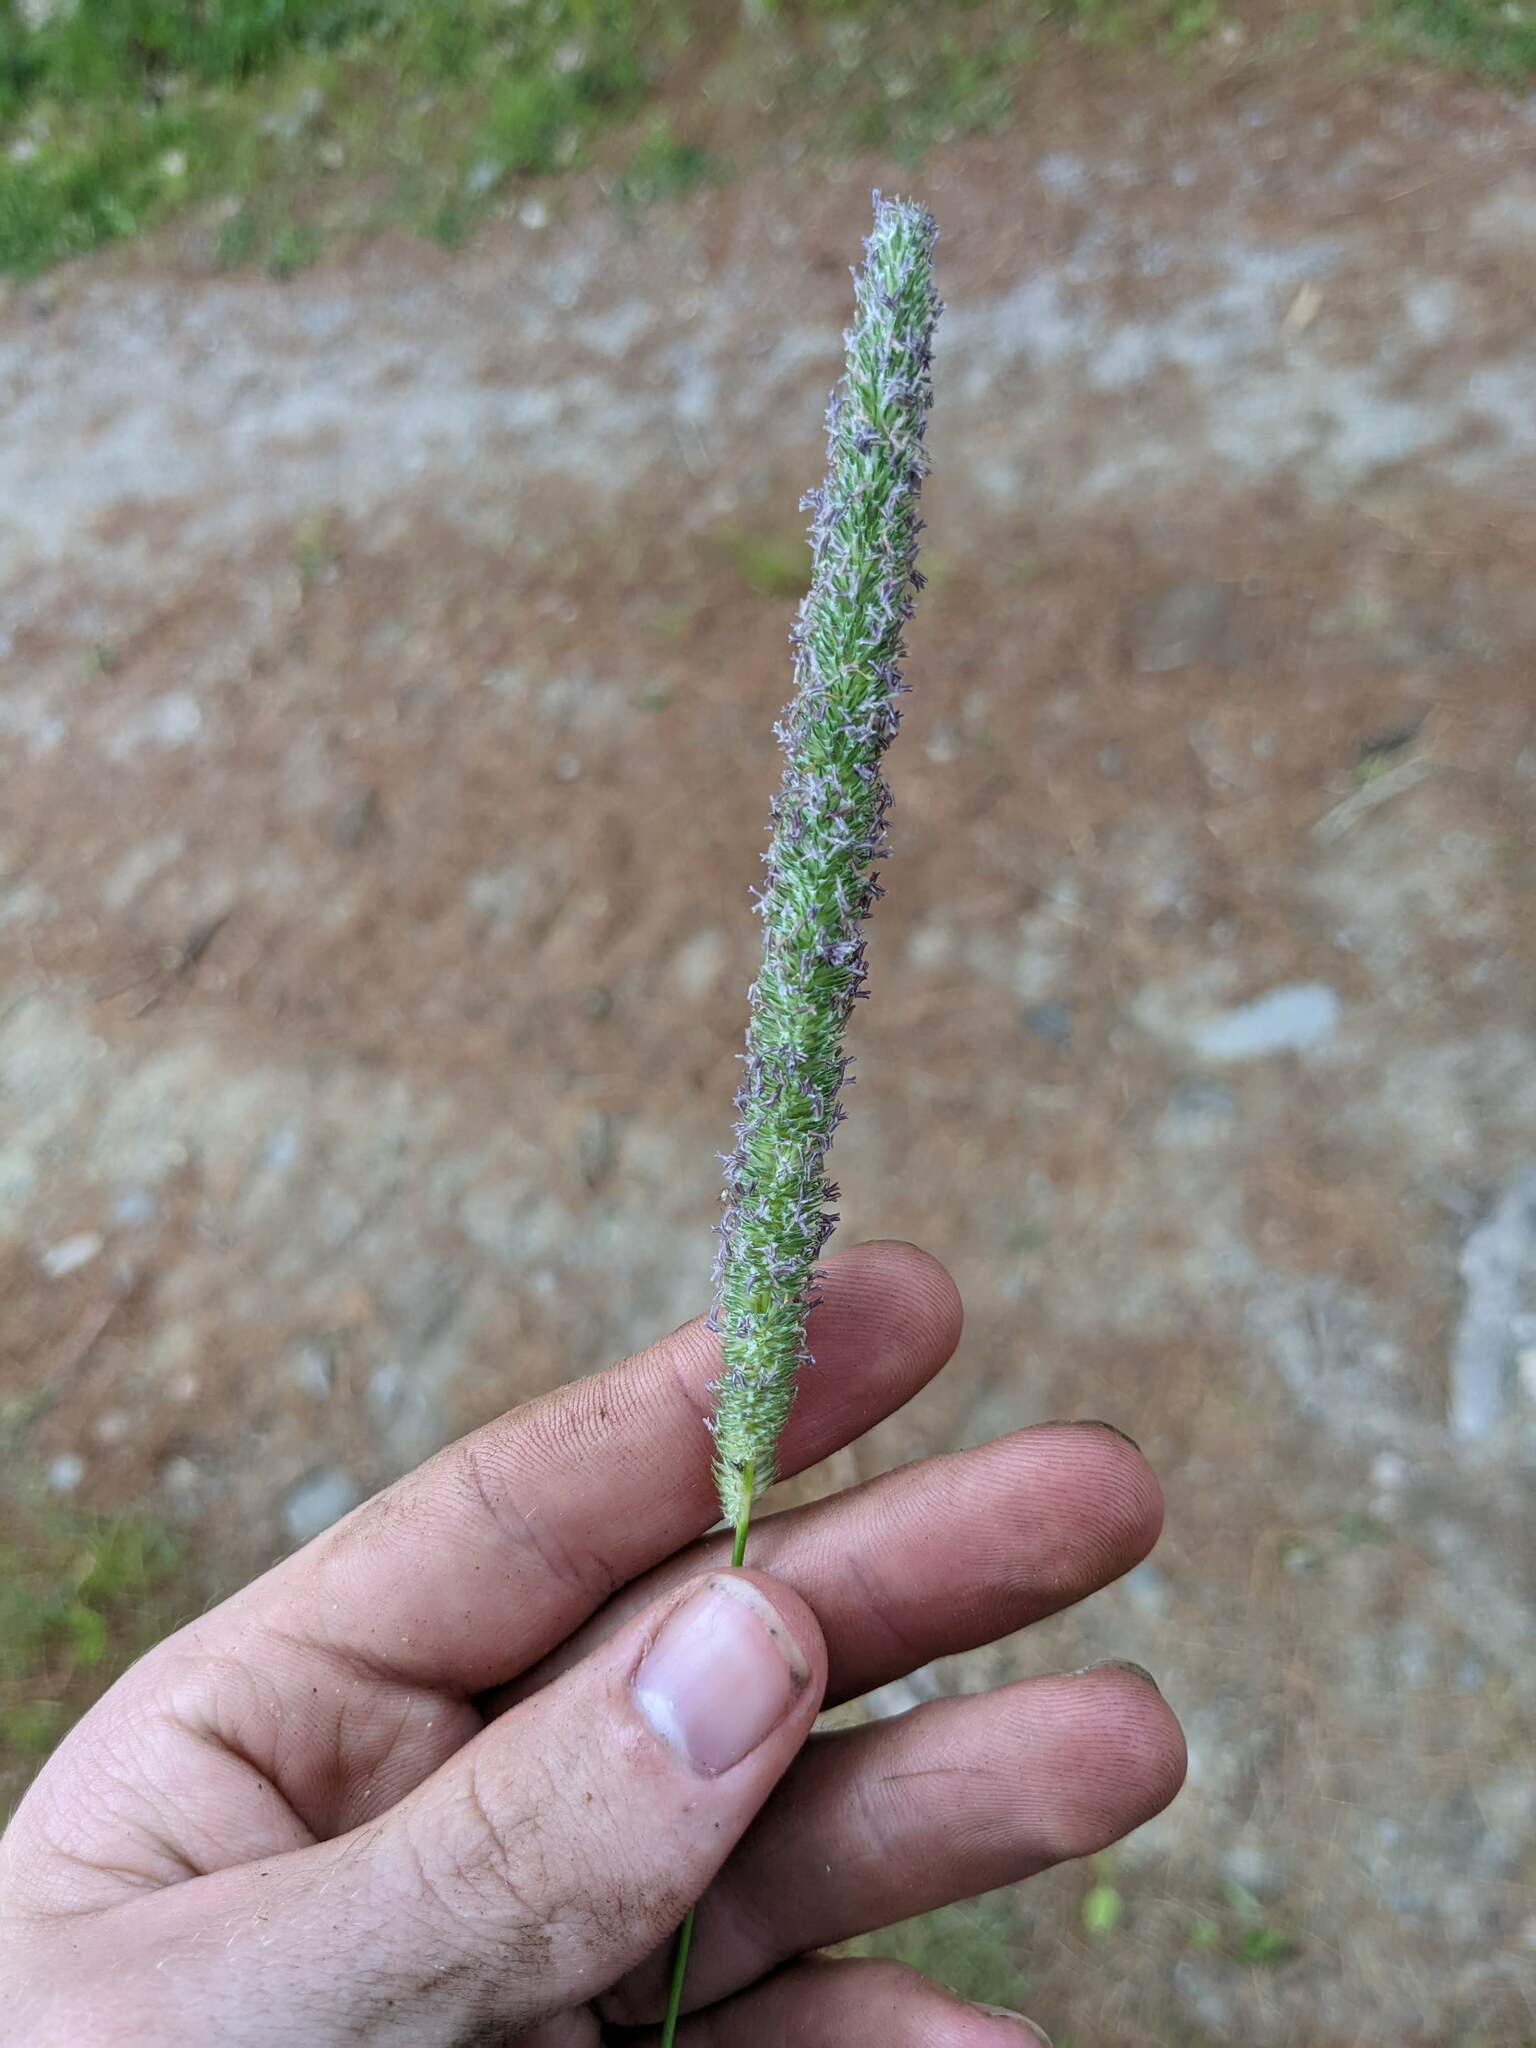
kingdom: Plantae
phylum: Tracheophyta
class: Liliopsida
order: Poales
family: Poaceae
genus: Phleum
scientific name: Phleum pratense
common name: Timothy grass
